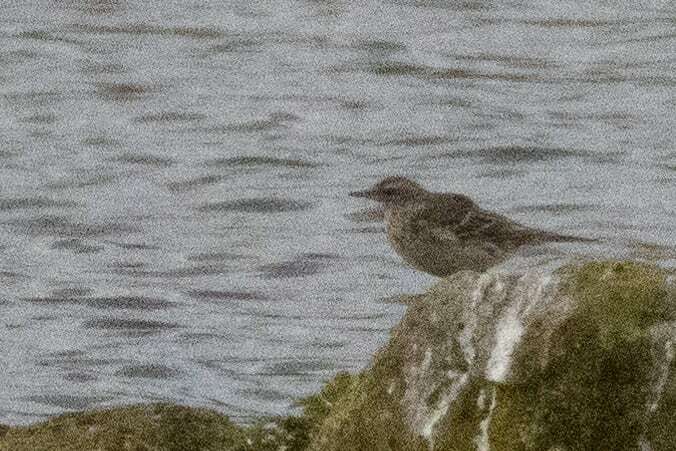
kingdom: Animalia
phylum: Chordata
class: Aves
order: Passeriformes
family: Motacillidae
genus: Anthus
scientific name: Anthus spinoletta
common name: Water pipit
